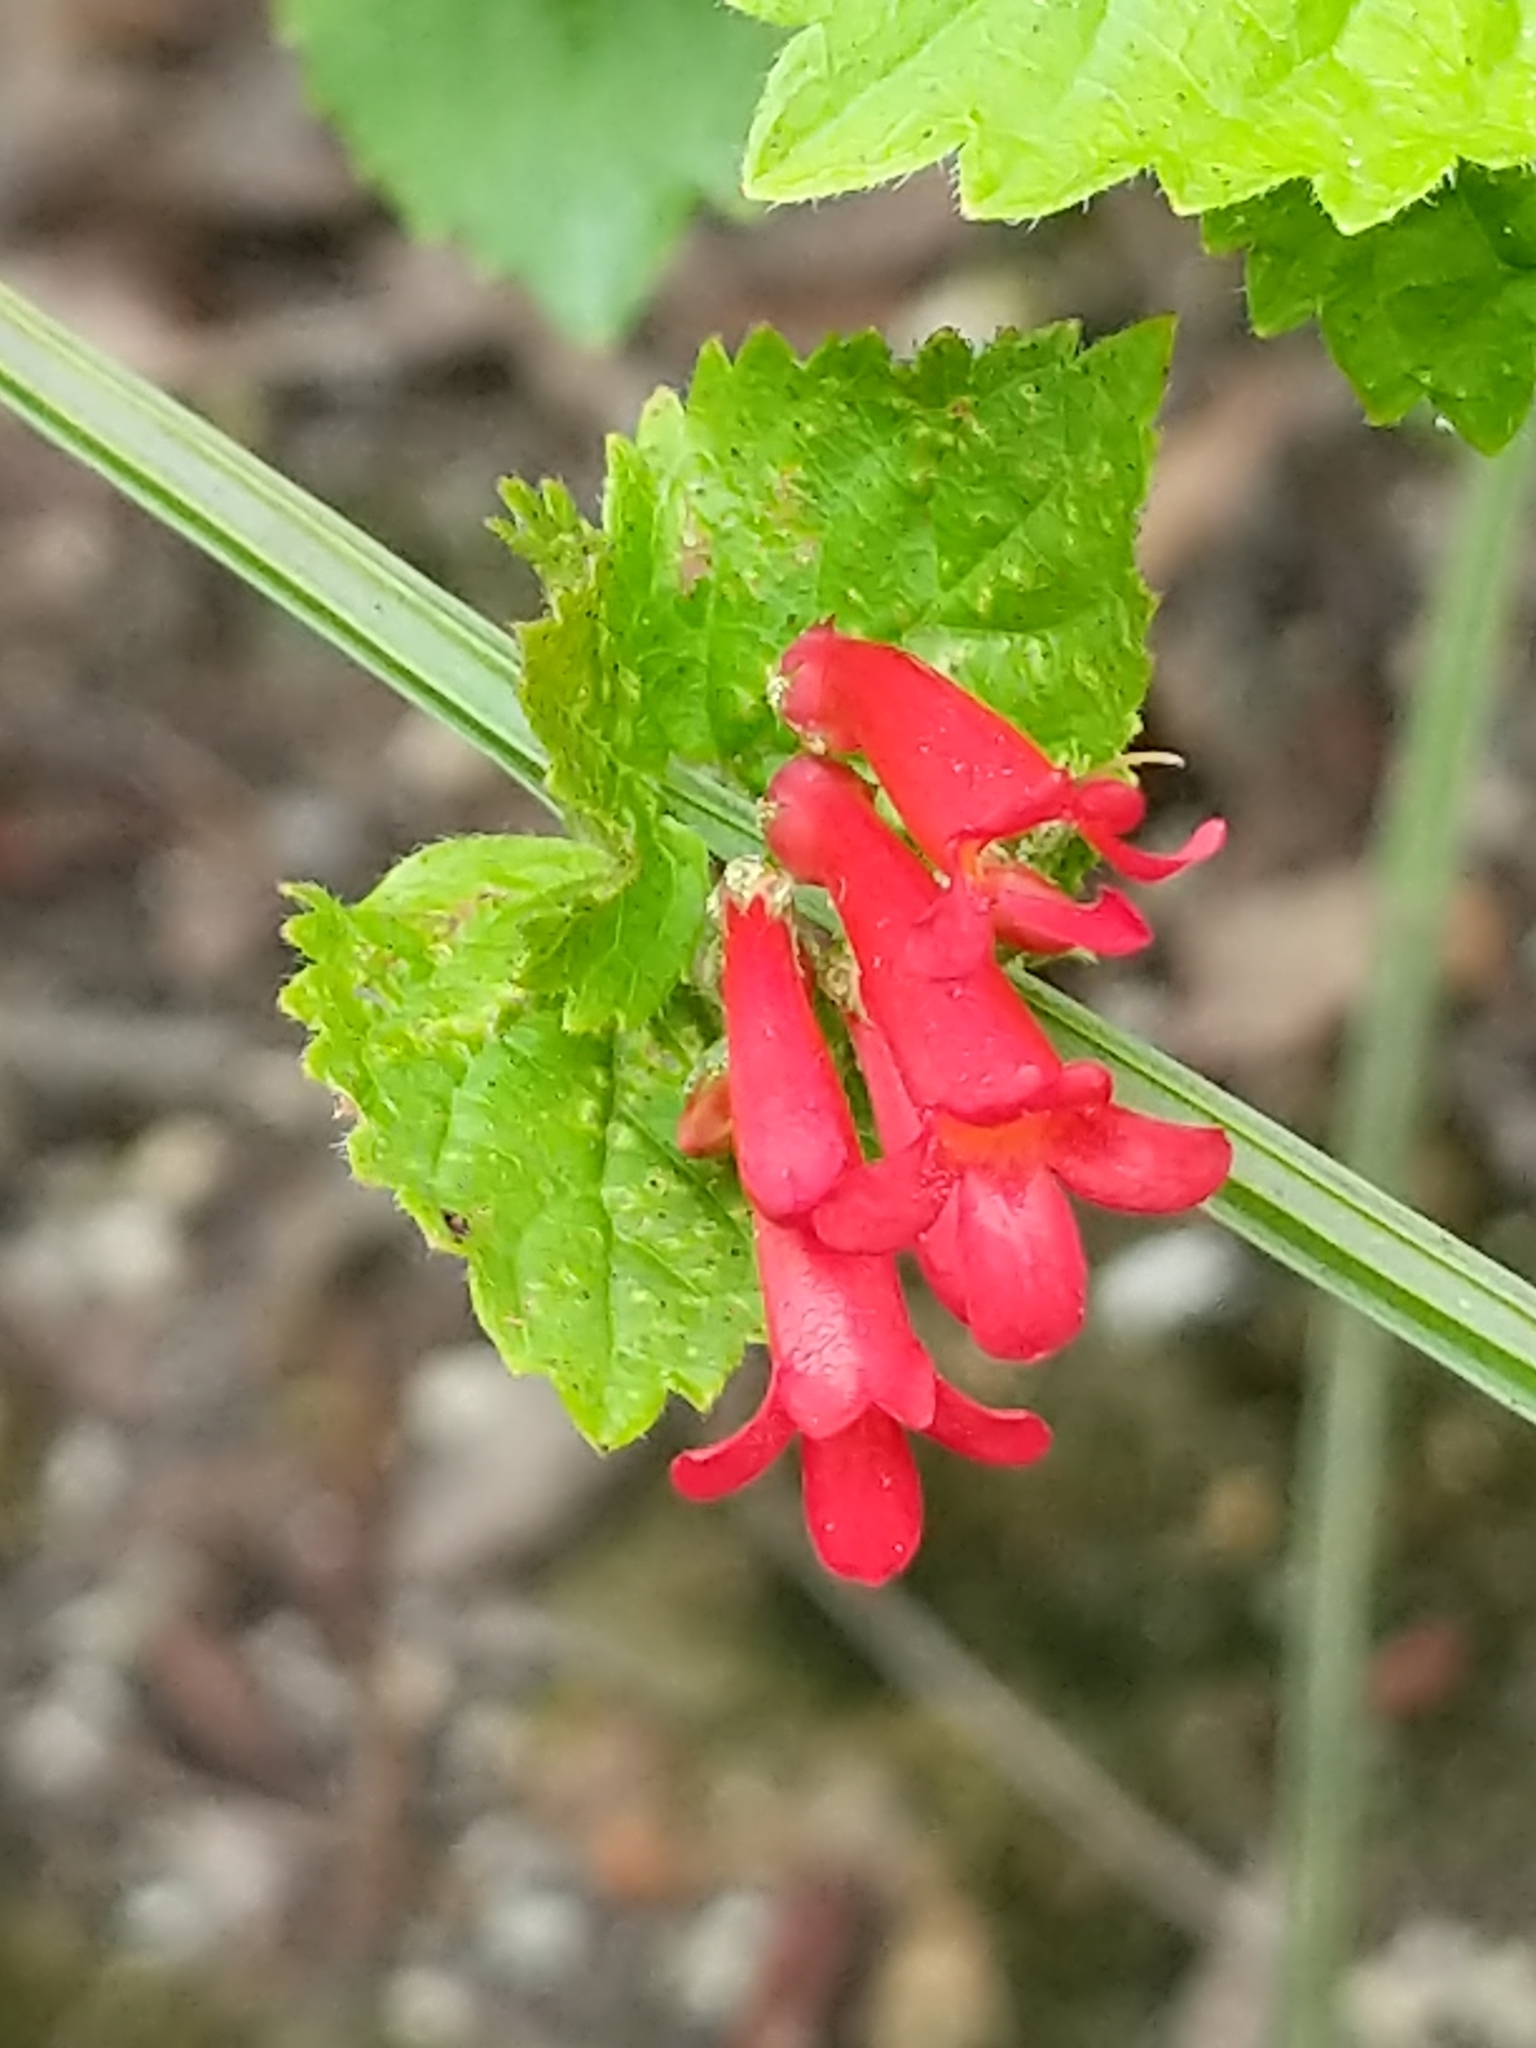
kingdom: Plantae
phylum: Tracheophyta
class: Magnoliopsida
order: Lamiales
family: Plantaginaceae
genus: Russelia
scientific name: Russelia sarmentosa
